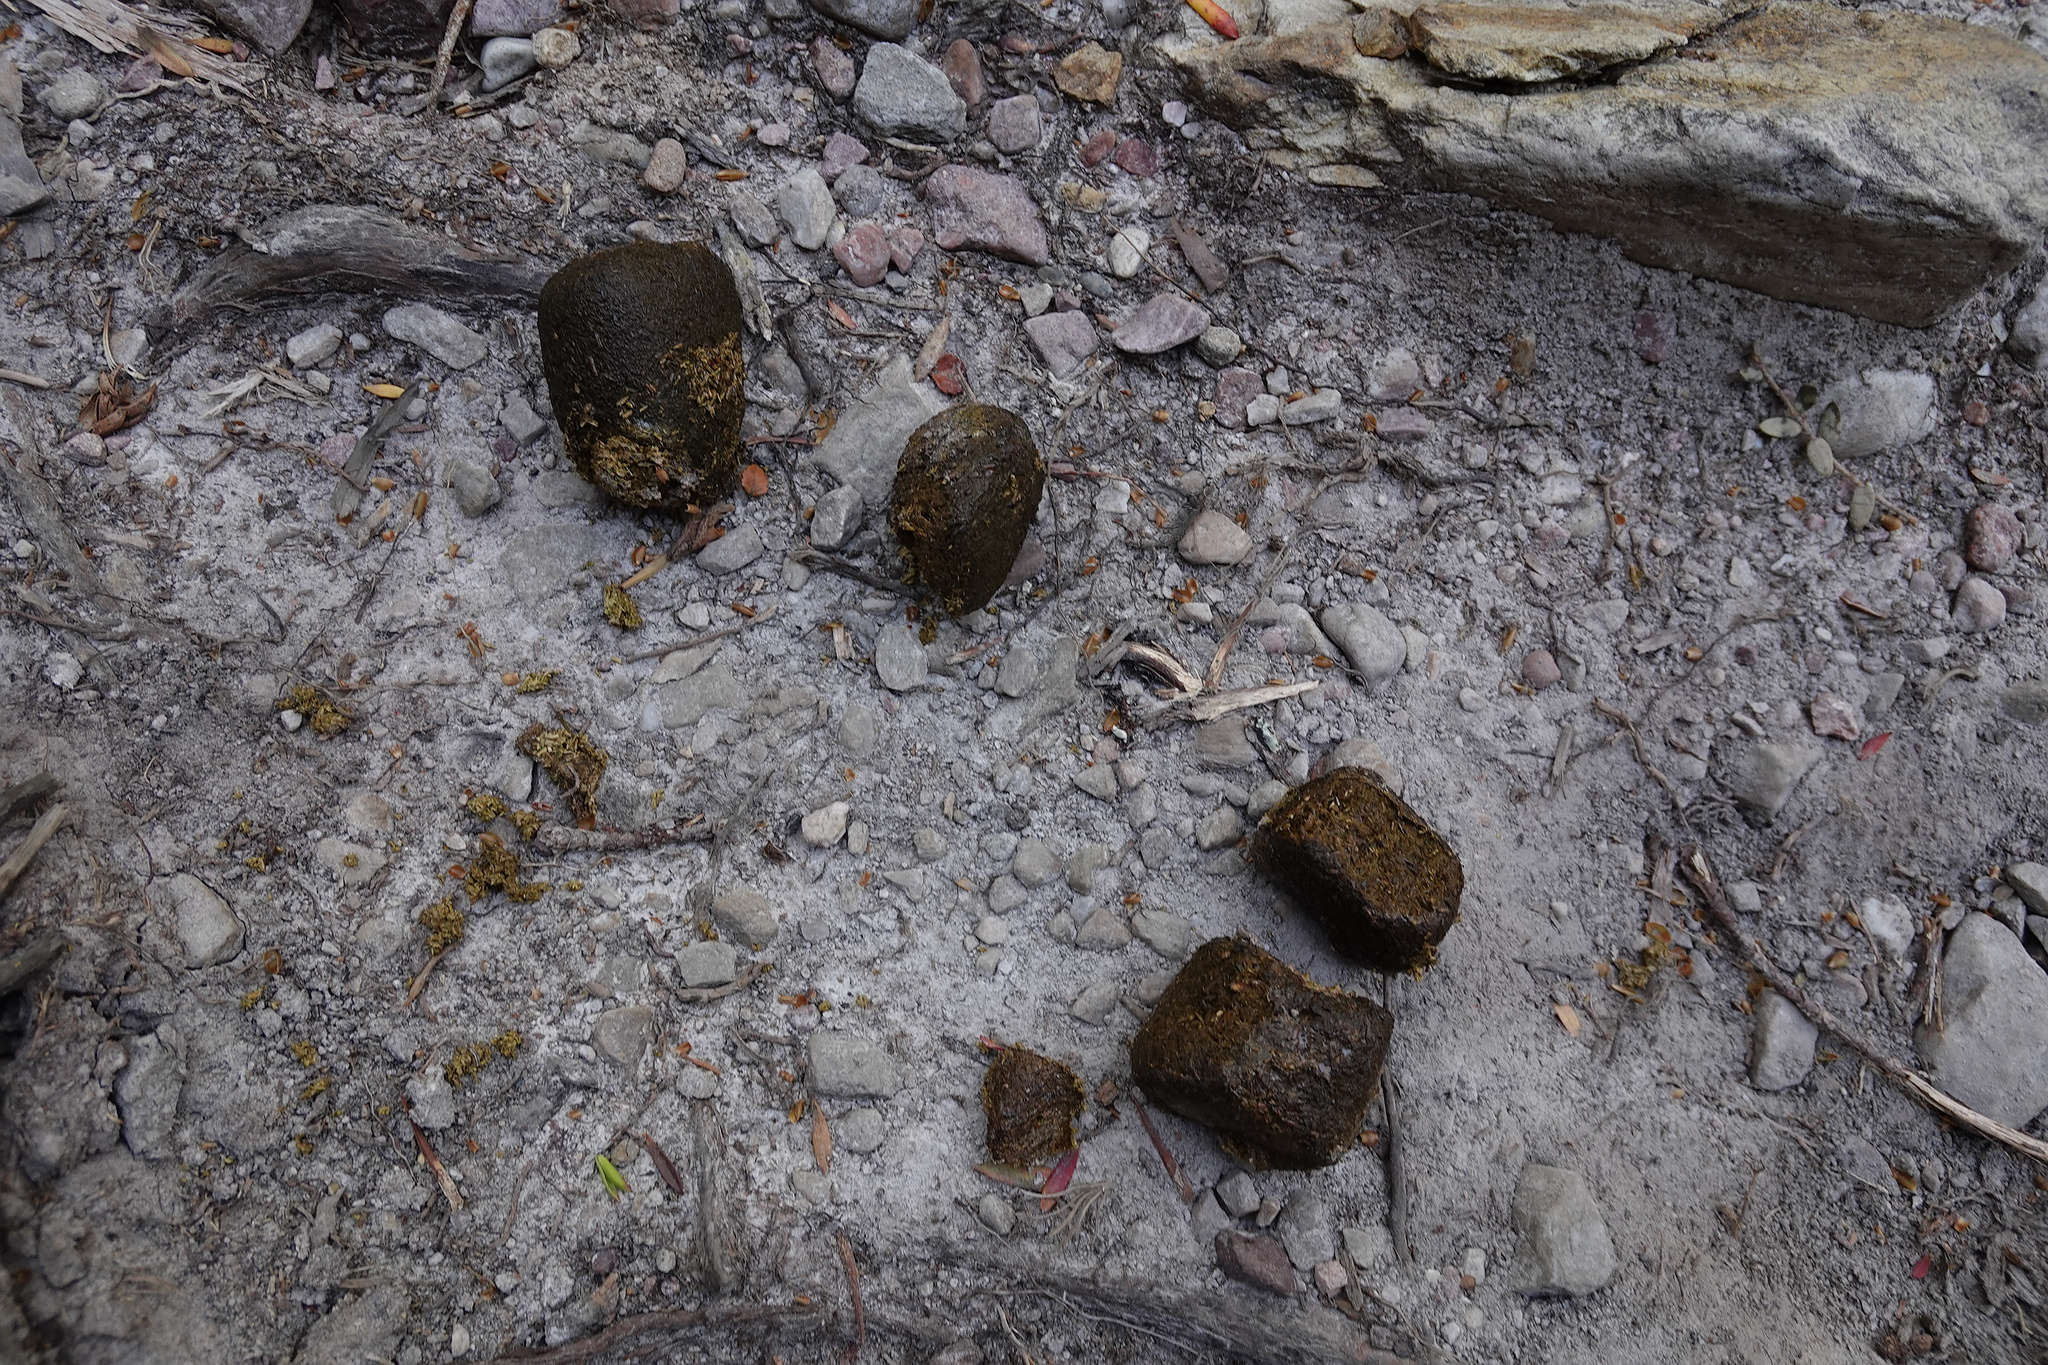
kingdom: Animalia
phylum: Chordata
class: Mammalia
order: Diprotodontia
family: Vombatidae
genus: Vombatus
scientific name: Vombatus ursinus
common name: Common wombat
